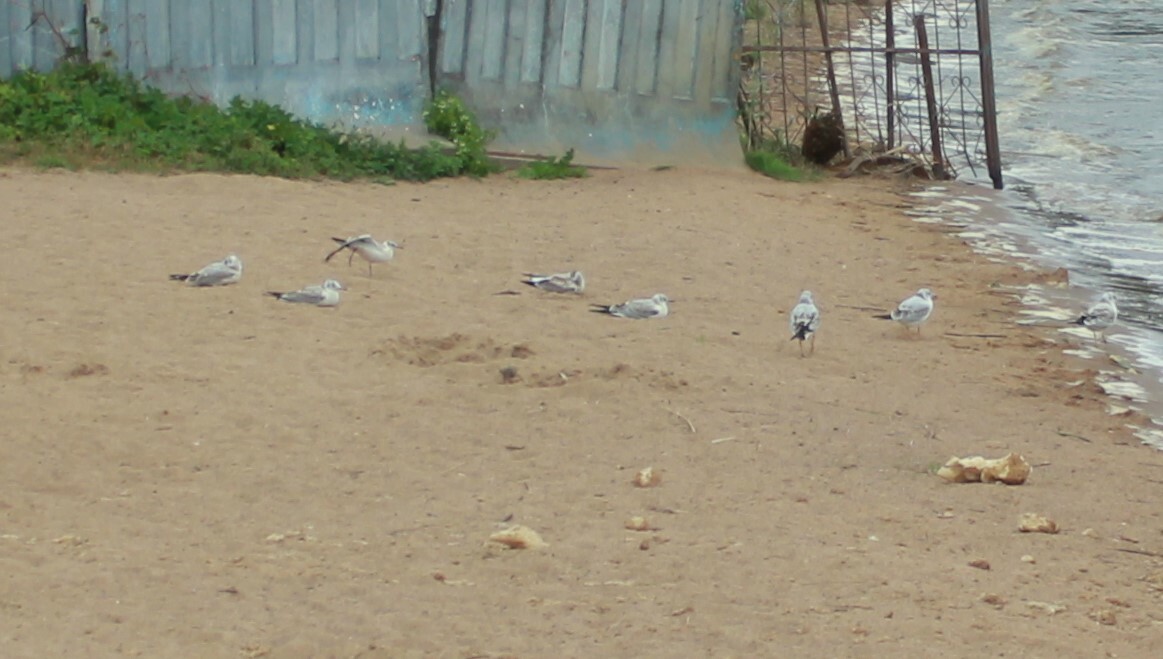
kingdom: Animalia
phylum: Chordata
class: Aves
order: Charadriiformes
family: Laridae
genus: Chroicocephalus
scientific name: Chroicocephalus ridibundus
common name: Black-headed gull
